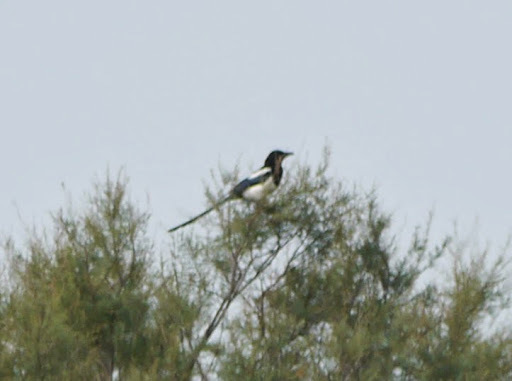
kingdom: Animalia
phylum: Chordata
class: Aves
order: Passeriformes
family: Corvidae
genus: Pica
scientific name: Pica pica
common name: Eurasian magpie
